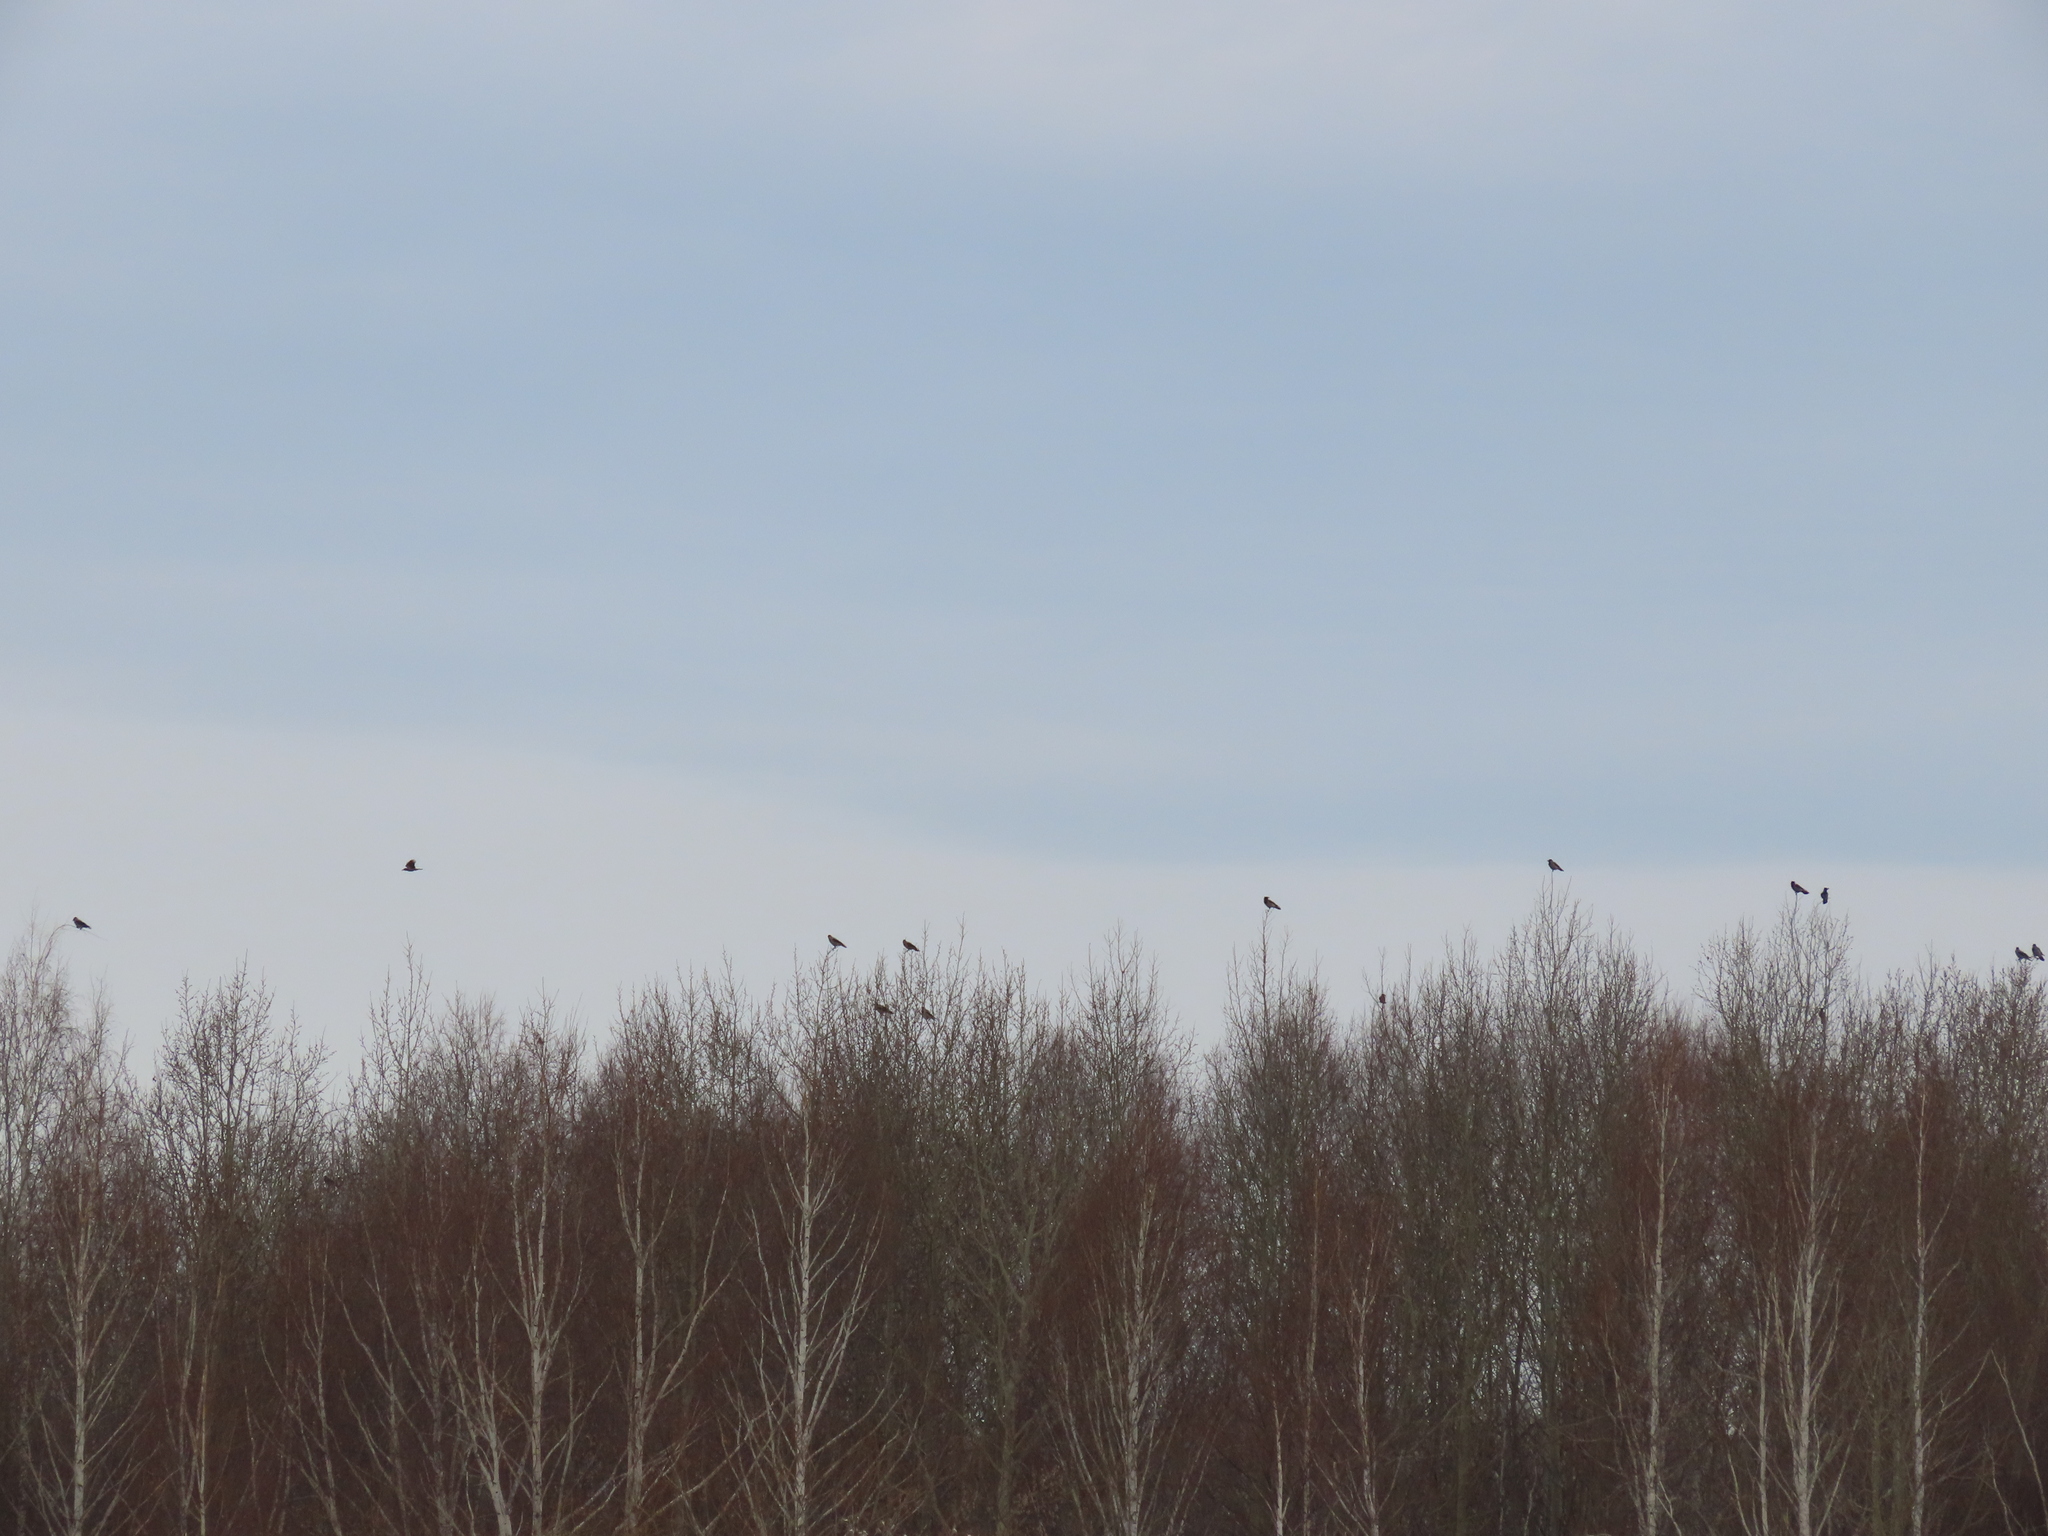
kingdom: Animalia
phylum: Chordata
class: Aves
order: Passeriformes
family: Corvidae
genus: Corvus
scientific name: Corvus cornix
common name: Hooded crow
